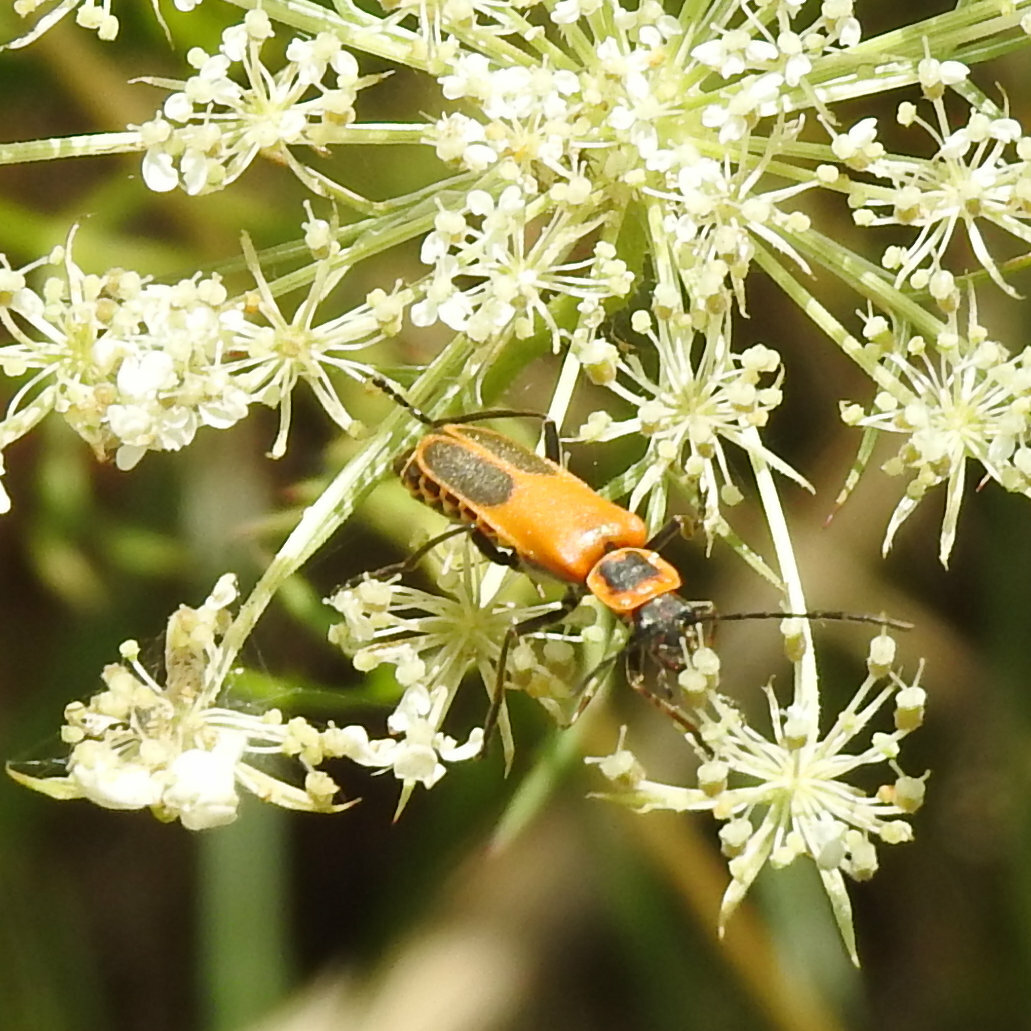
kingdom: Animalia
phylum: Arthropoda
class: Insecta
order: Coleoptera
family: Cantharidae
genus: Chauliognathus
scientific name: Chauliognathus pensylvanicus
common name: Goldenrod soldier beetle
